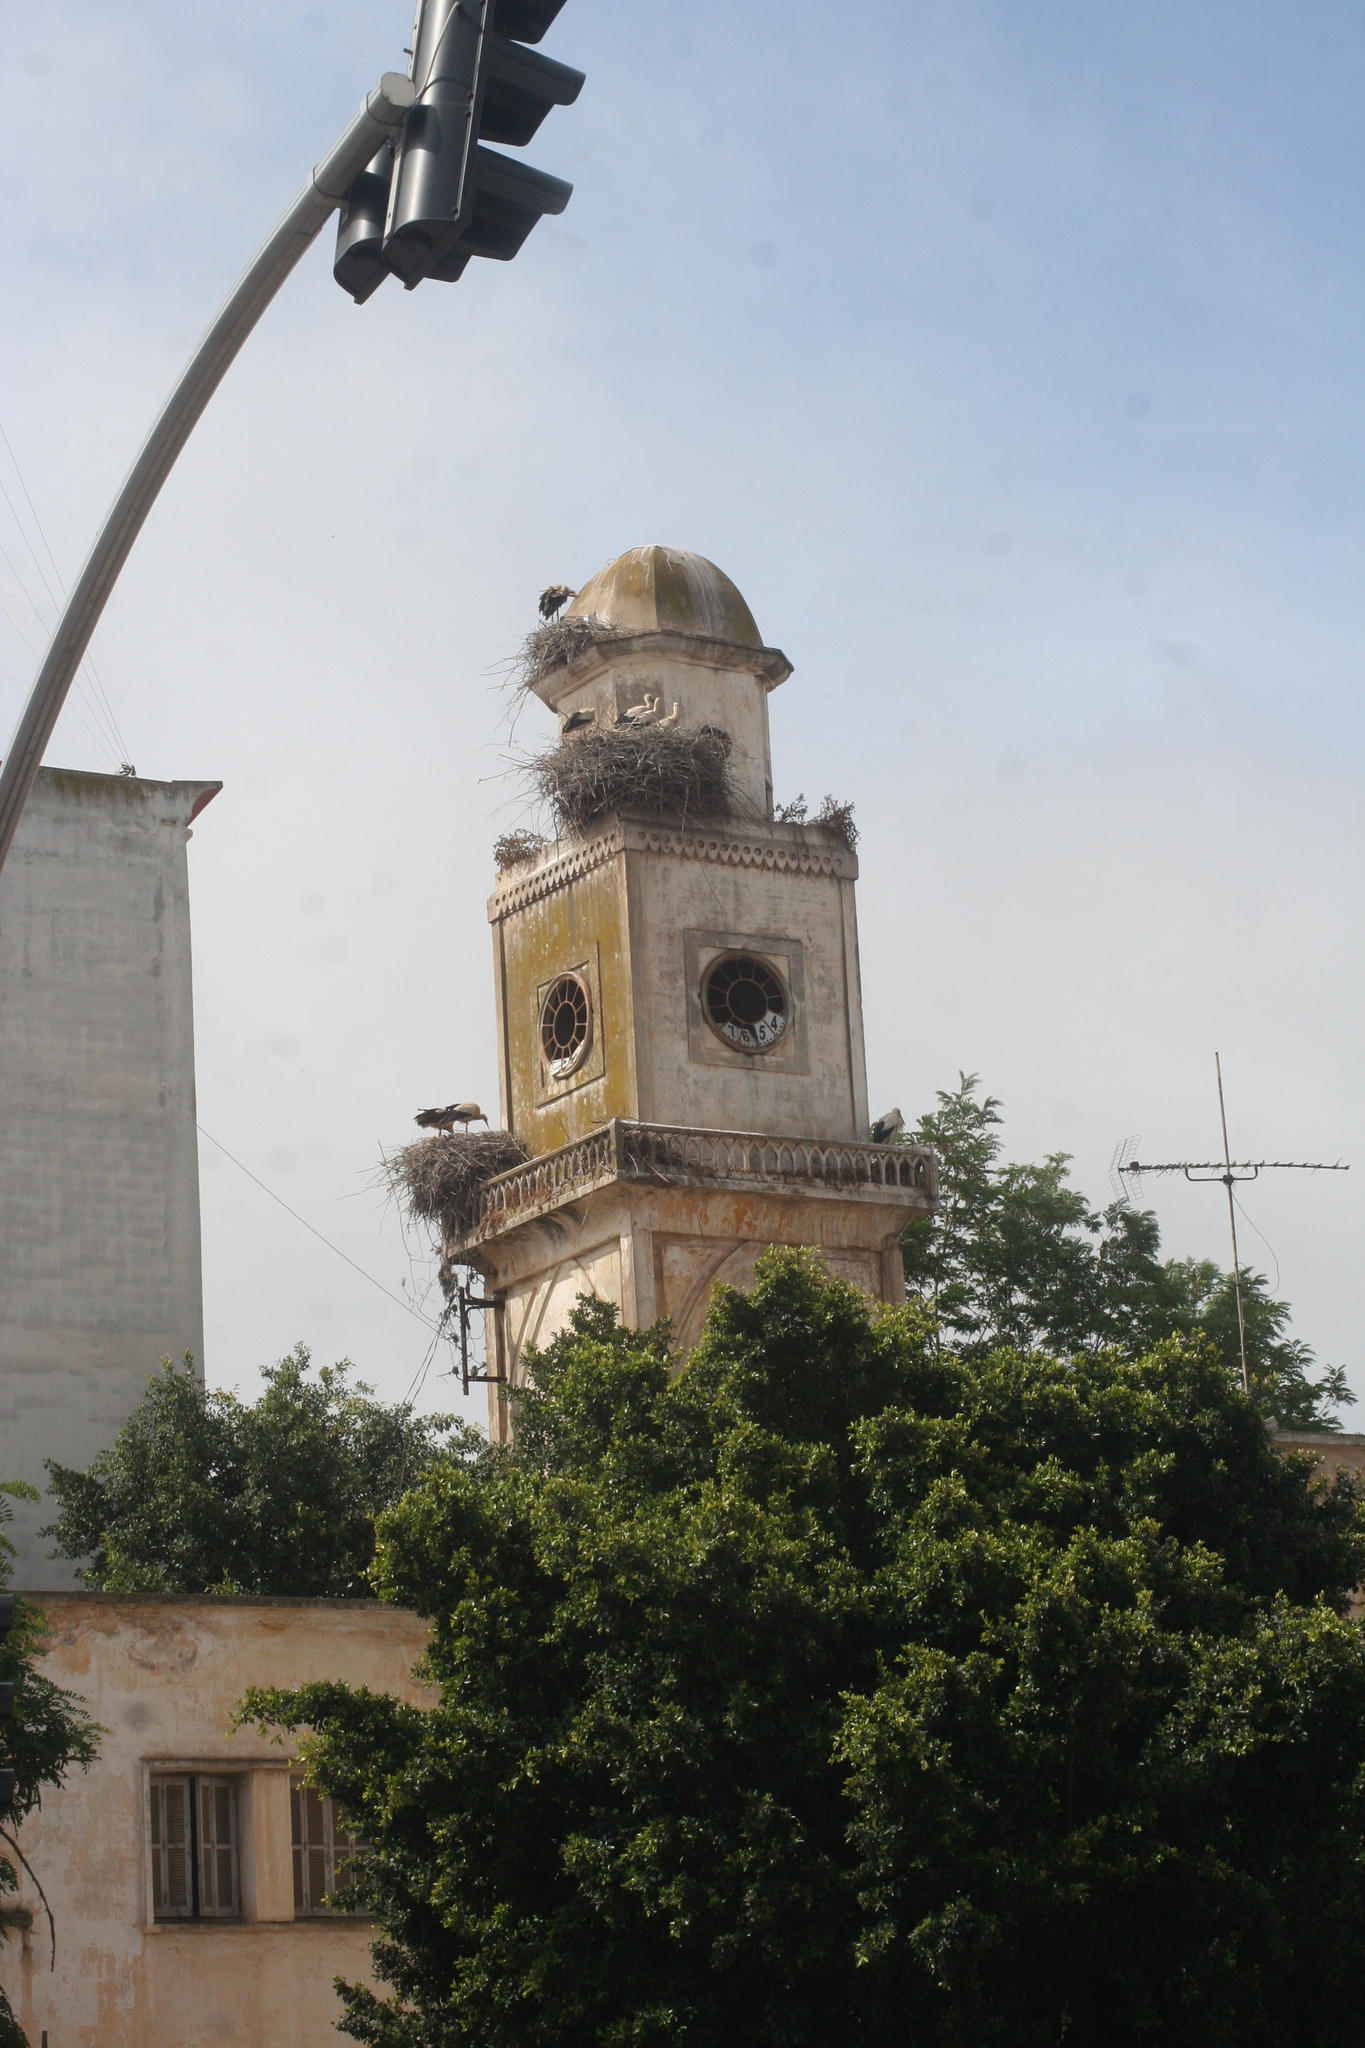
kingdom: Animalia
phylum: Chordata
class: Aves
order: Ciconiiformes
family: Ciconiidae
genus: Ciconia
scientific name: Ciconia ciconia
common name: White stork
